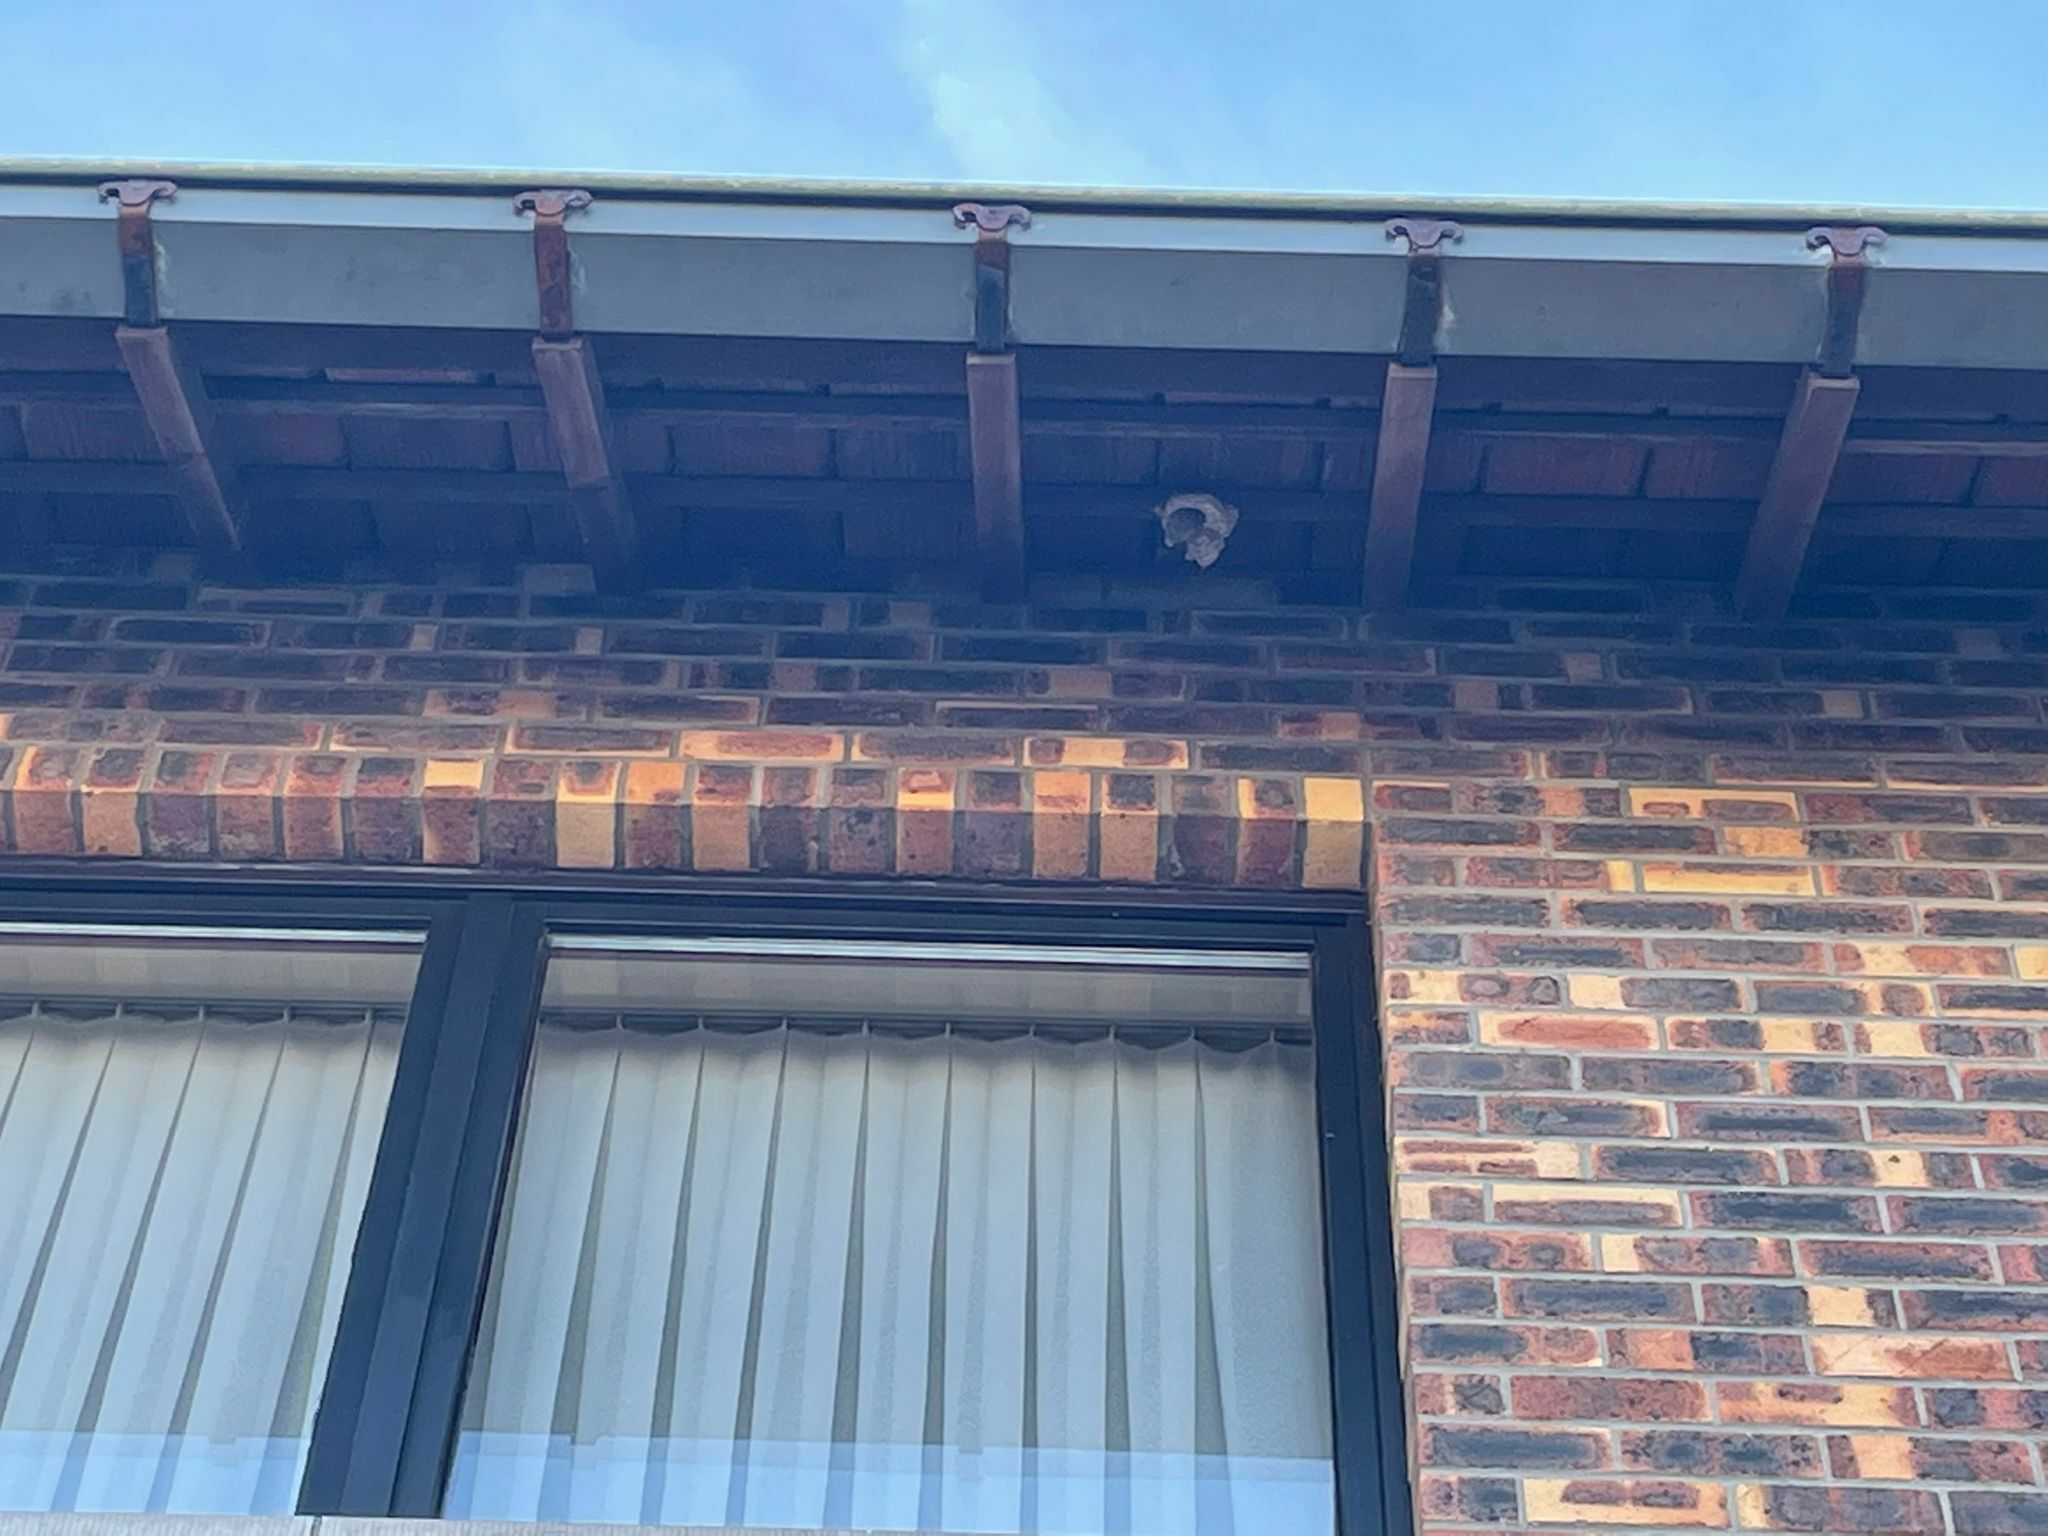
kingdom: Animalia
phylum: Arthropoda
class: Insecta
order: Hymenoptera
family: Vespidae
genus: Vespa
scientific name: Vespa velutina
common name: Asian hornet
